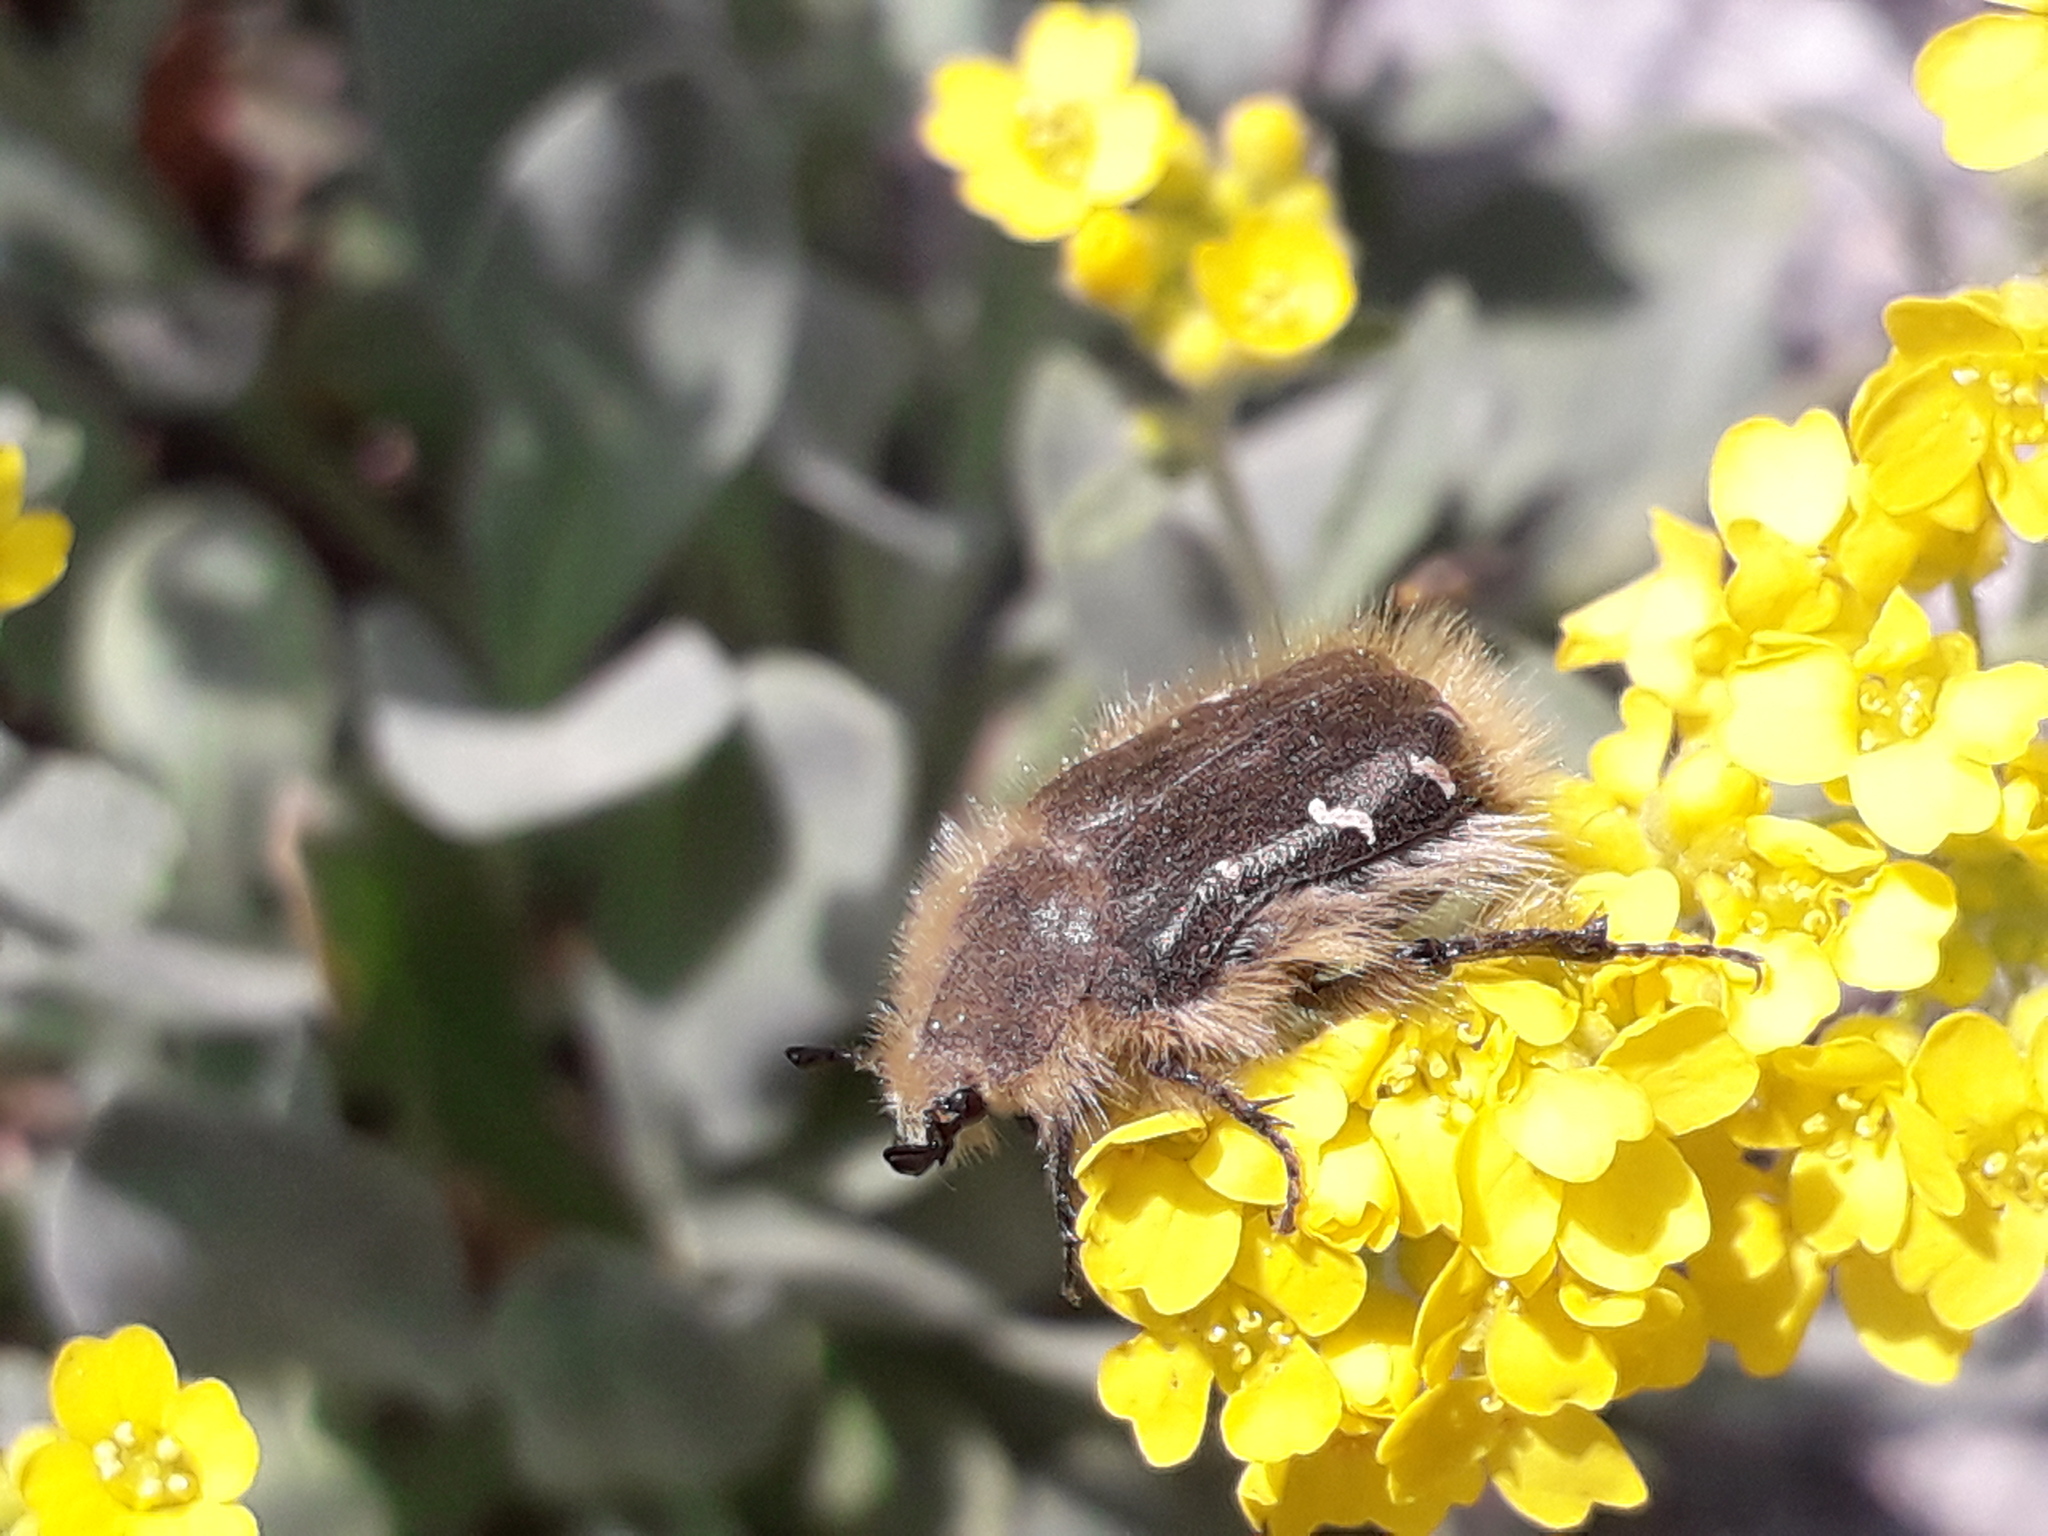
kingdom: Animalia
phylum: Arthropoda
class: Insecta
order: Coleoptera
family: Scarabaeidae
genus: Tropinota
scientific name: Tropinota hirta
